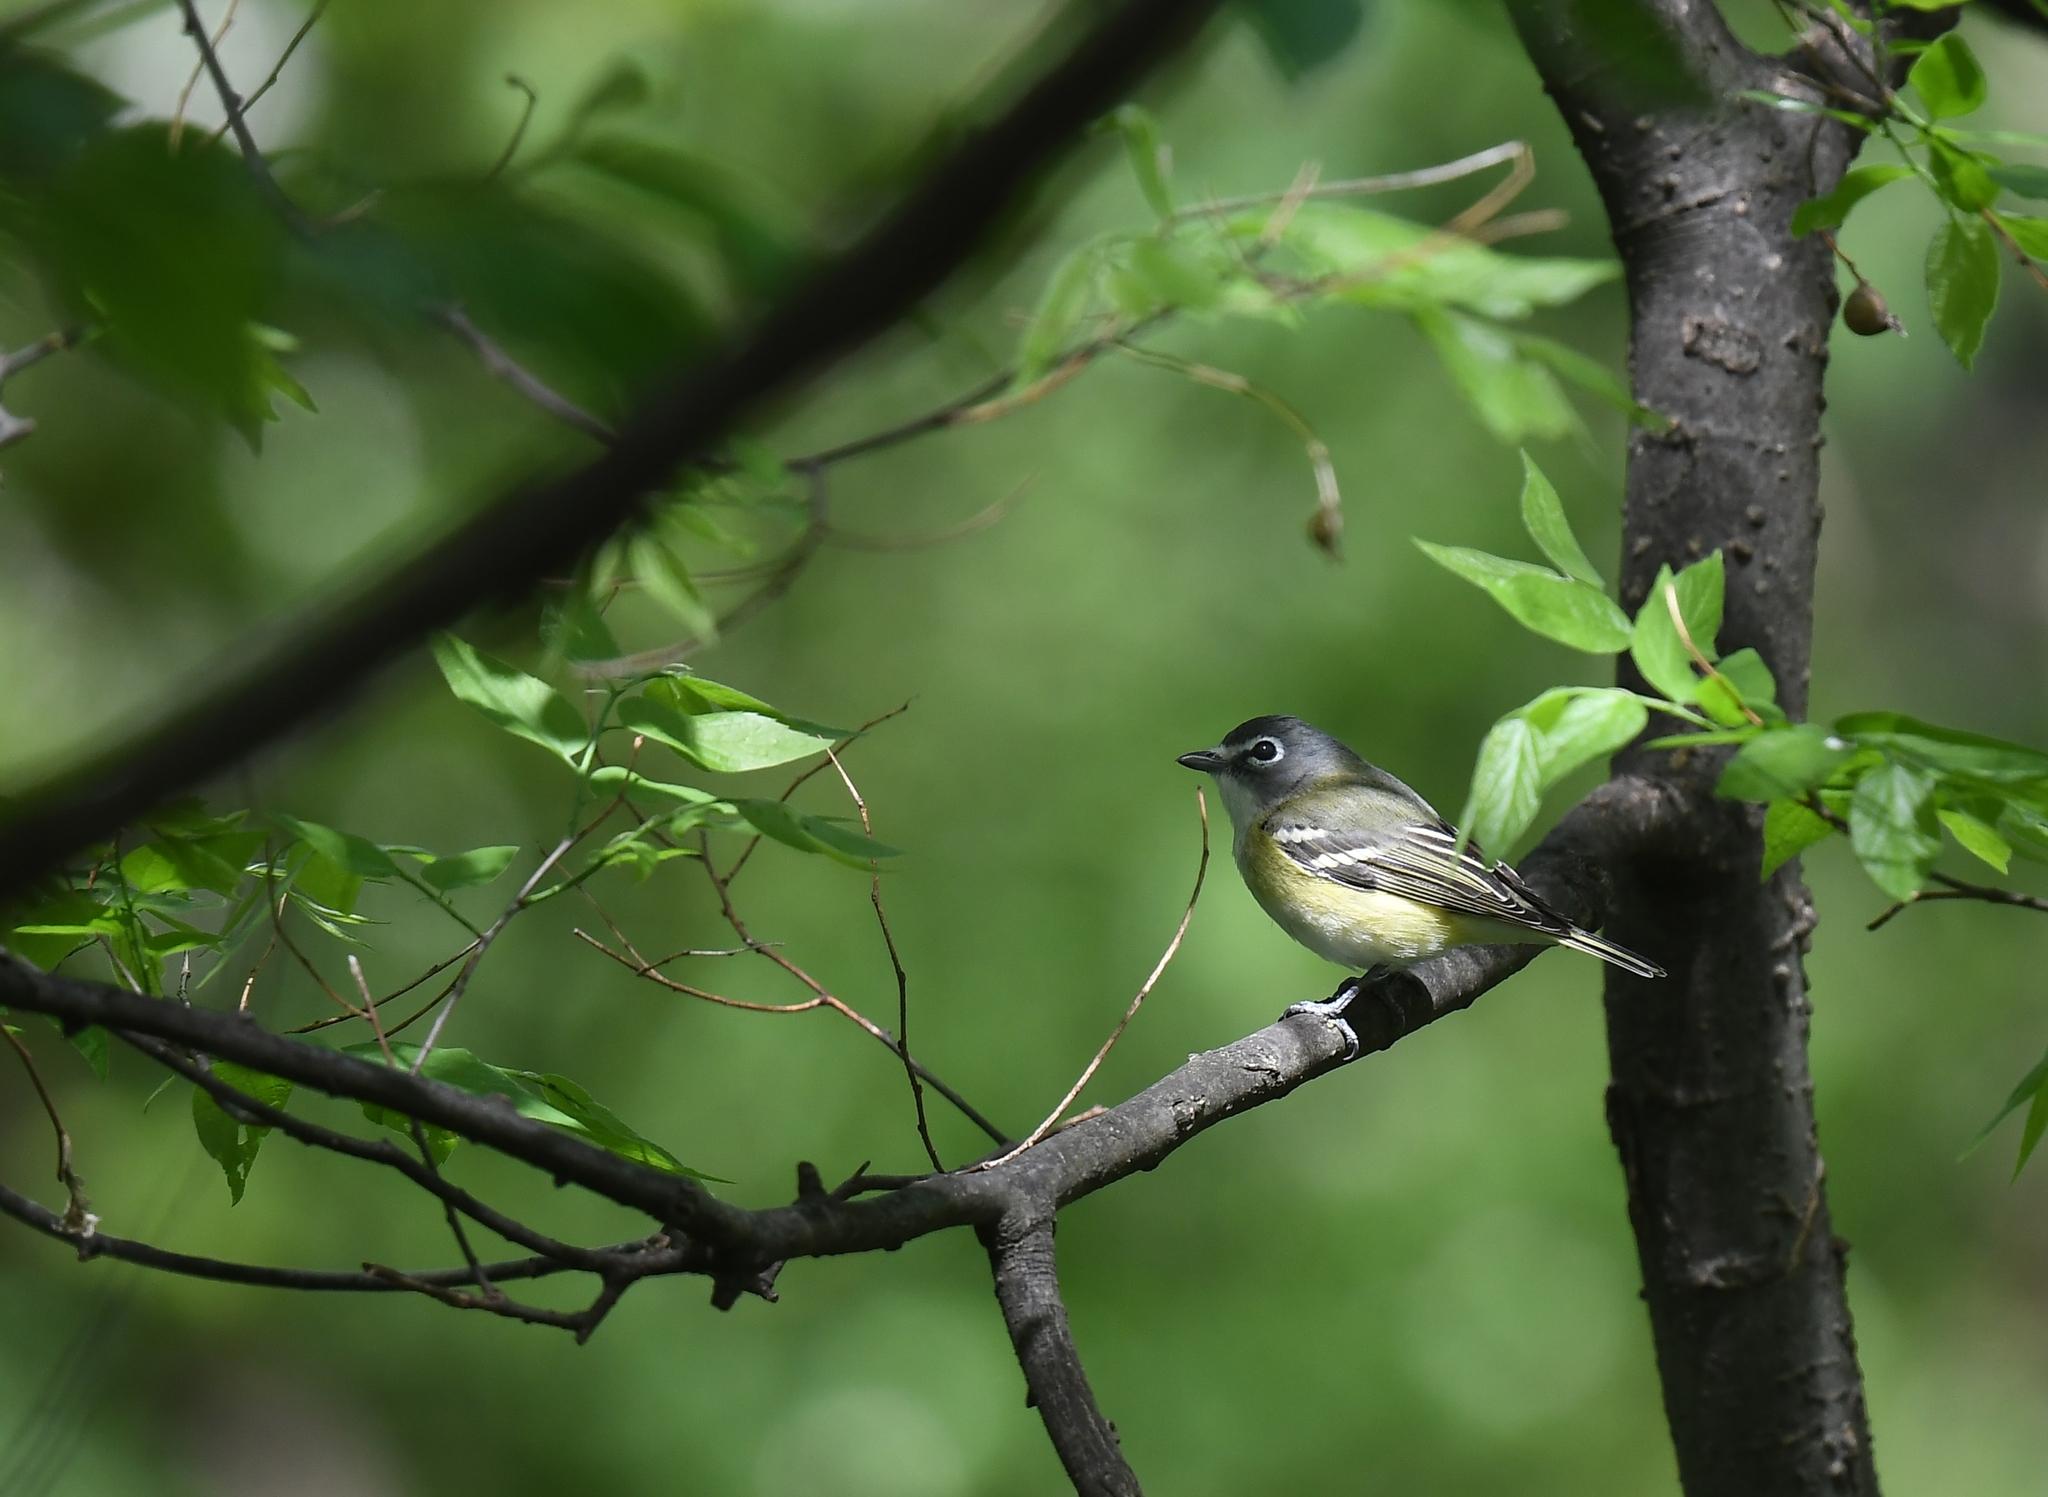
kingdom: Animalia
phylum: Chordata
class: Aves
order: Passeriformes
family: Vireonidae
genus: Vireo
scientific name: Vireo solitarius
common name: Blue-headed vireo
